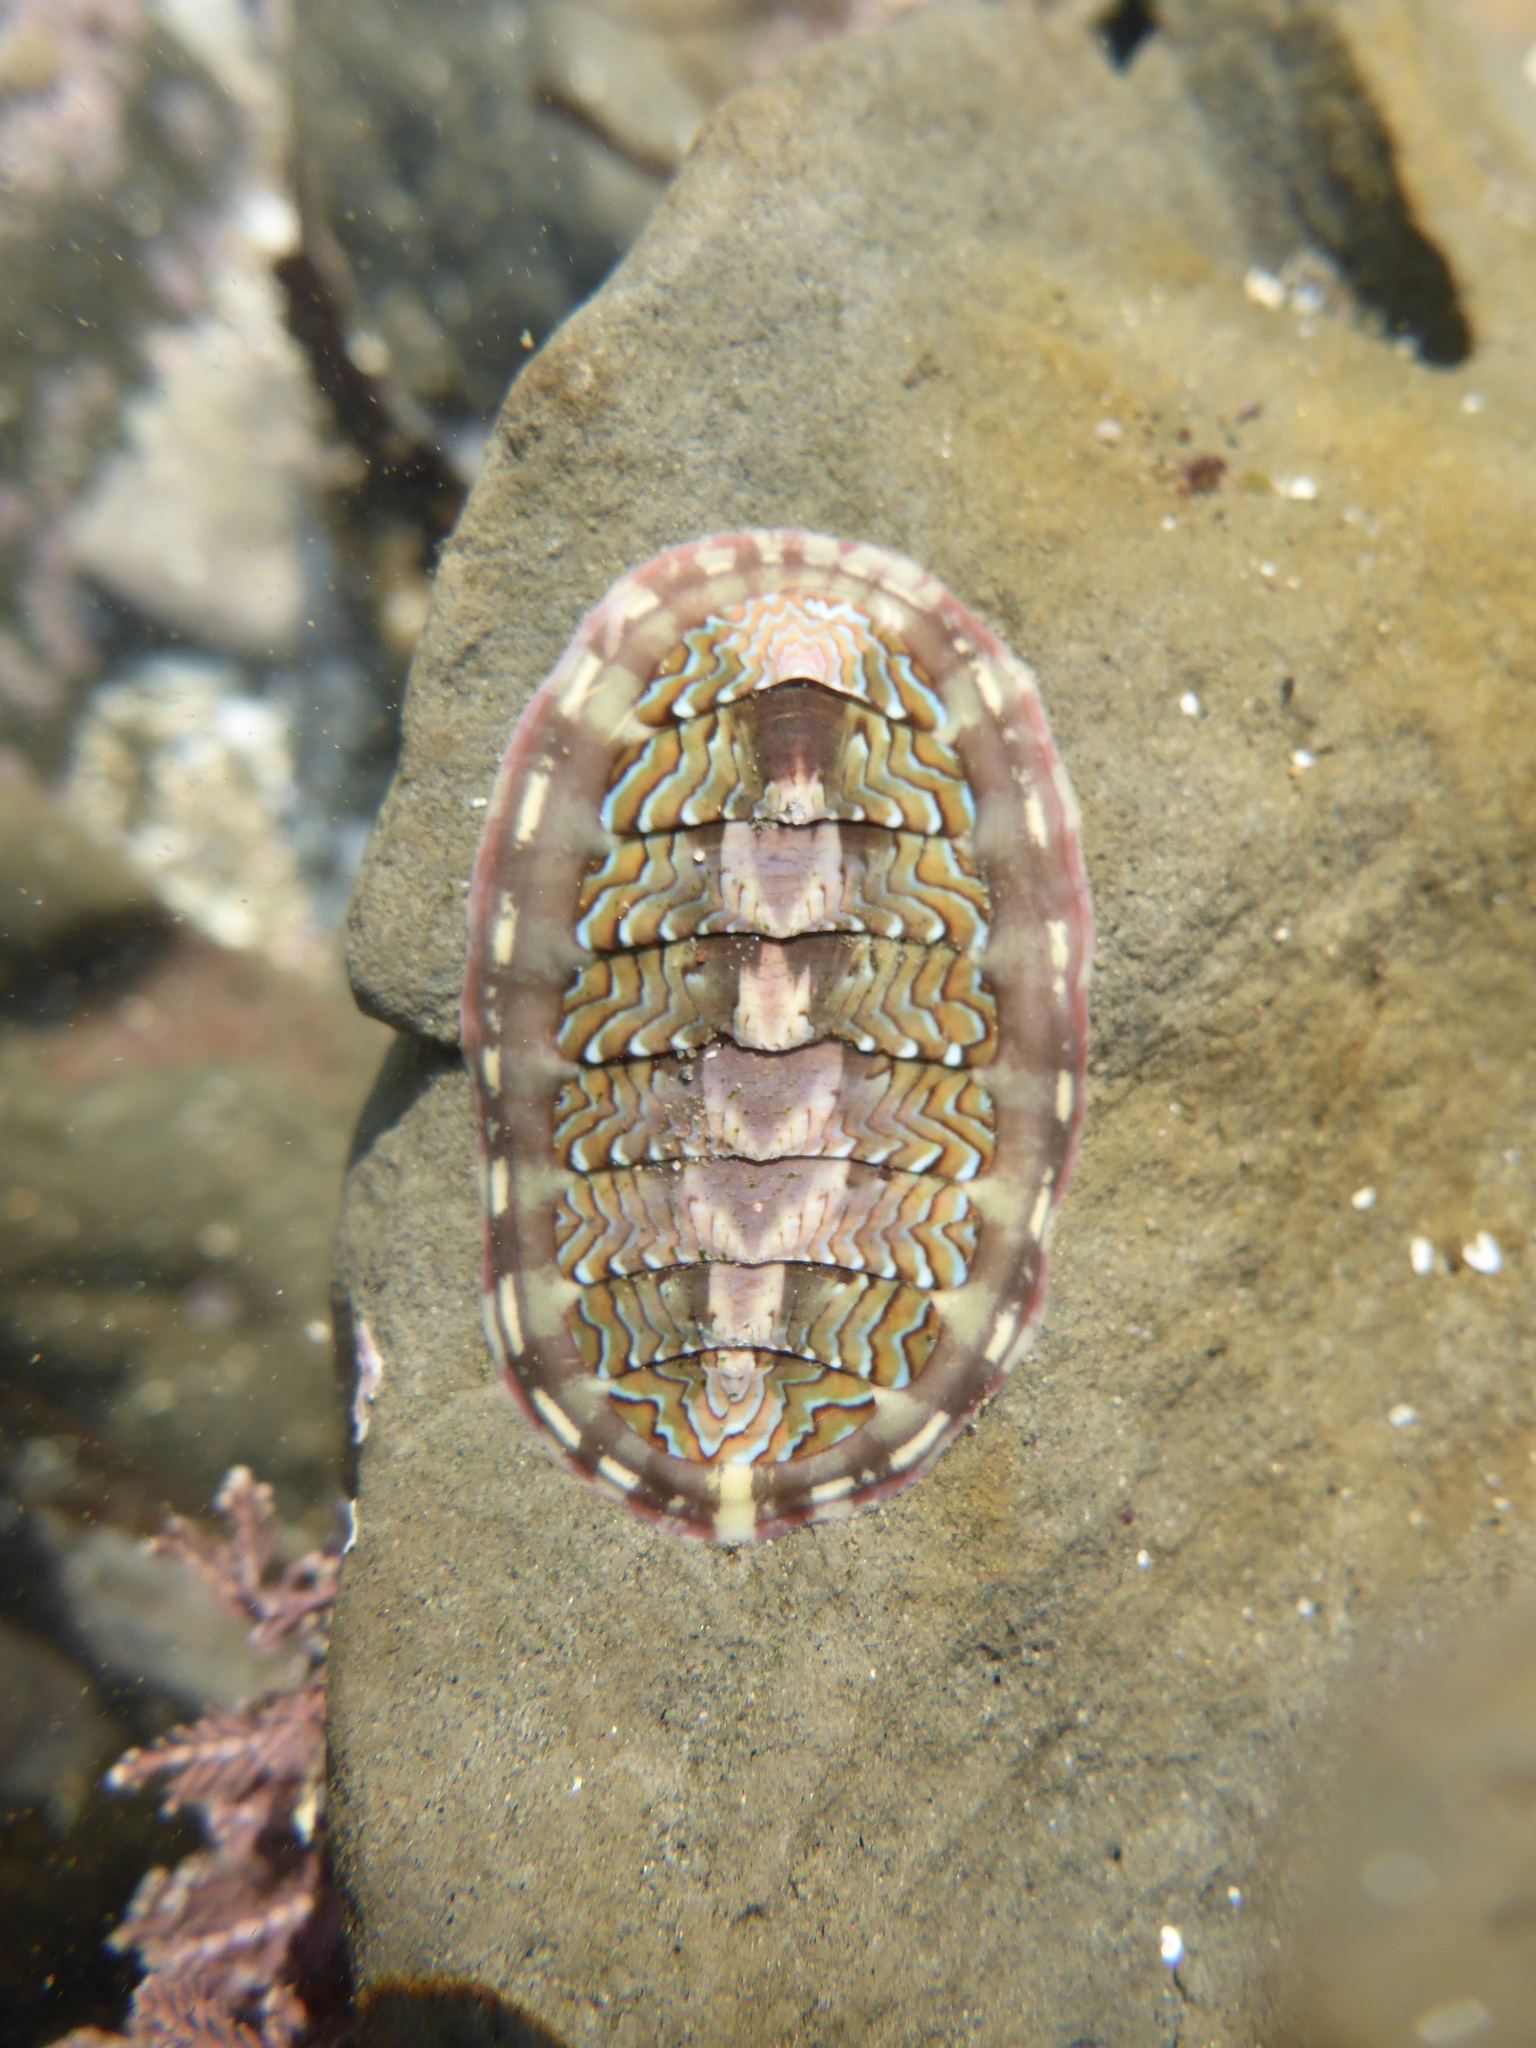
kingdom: Animalia
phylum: Mollusca
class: Polyplacophora
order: Chitonida
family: Tonicellidae
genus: Tonicella
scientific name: Tonicella lokii
